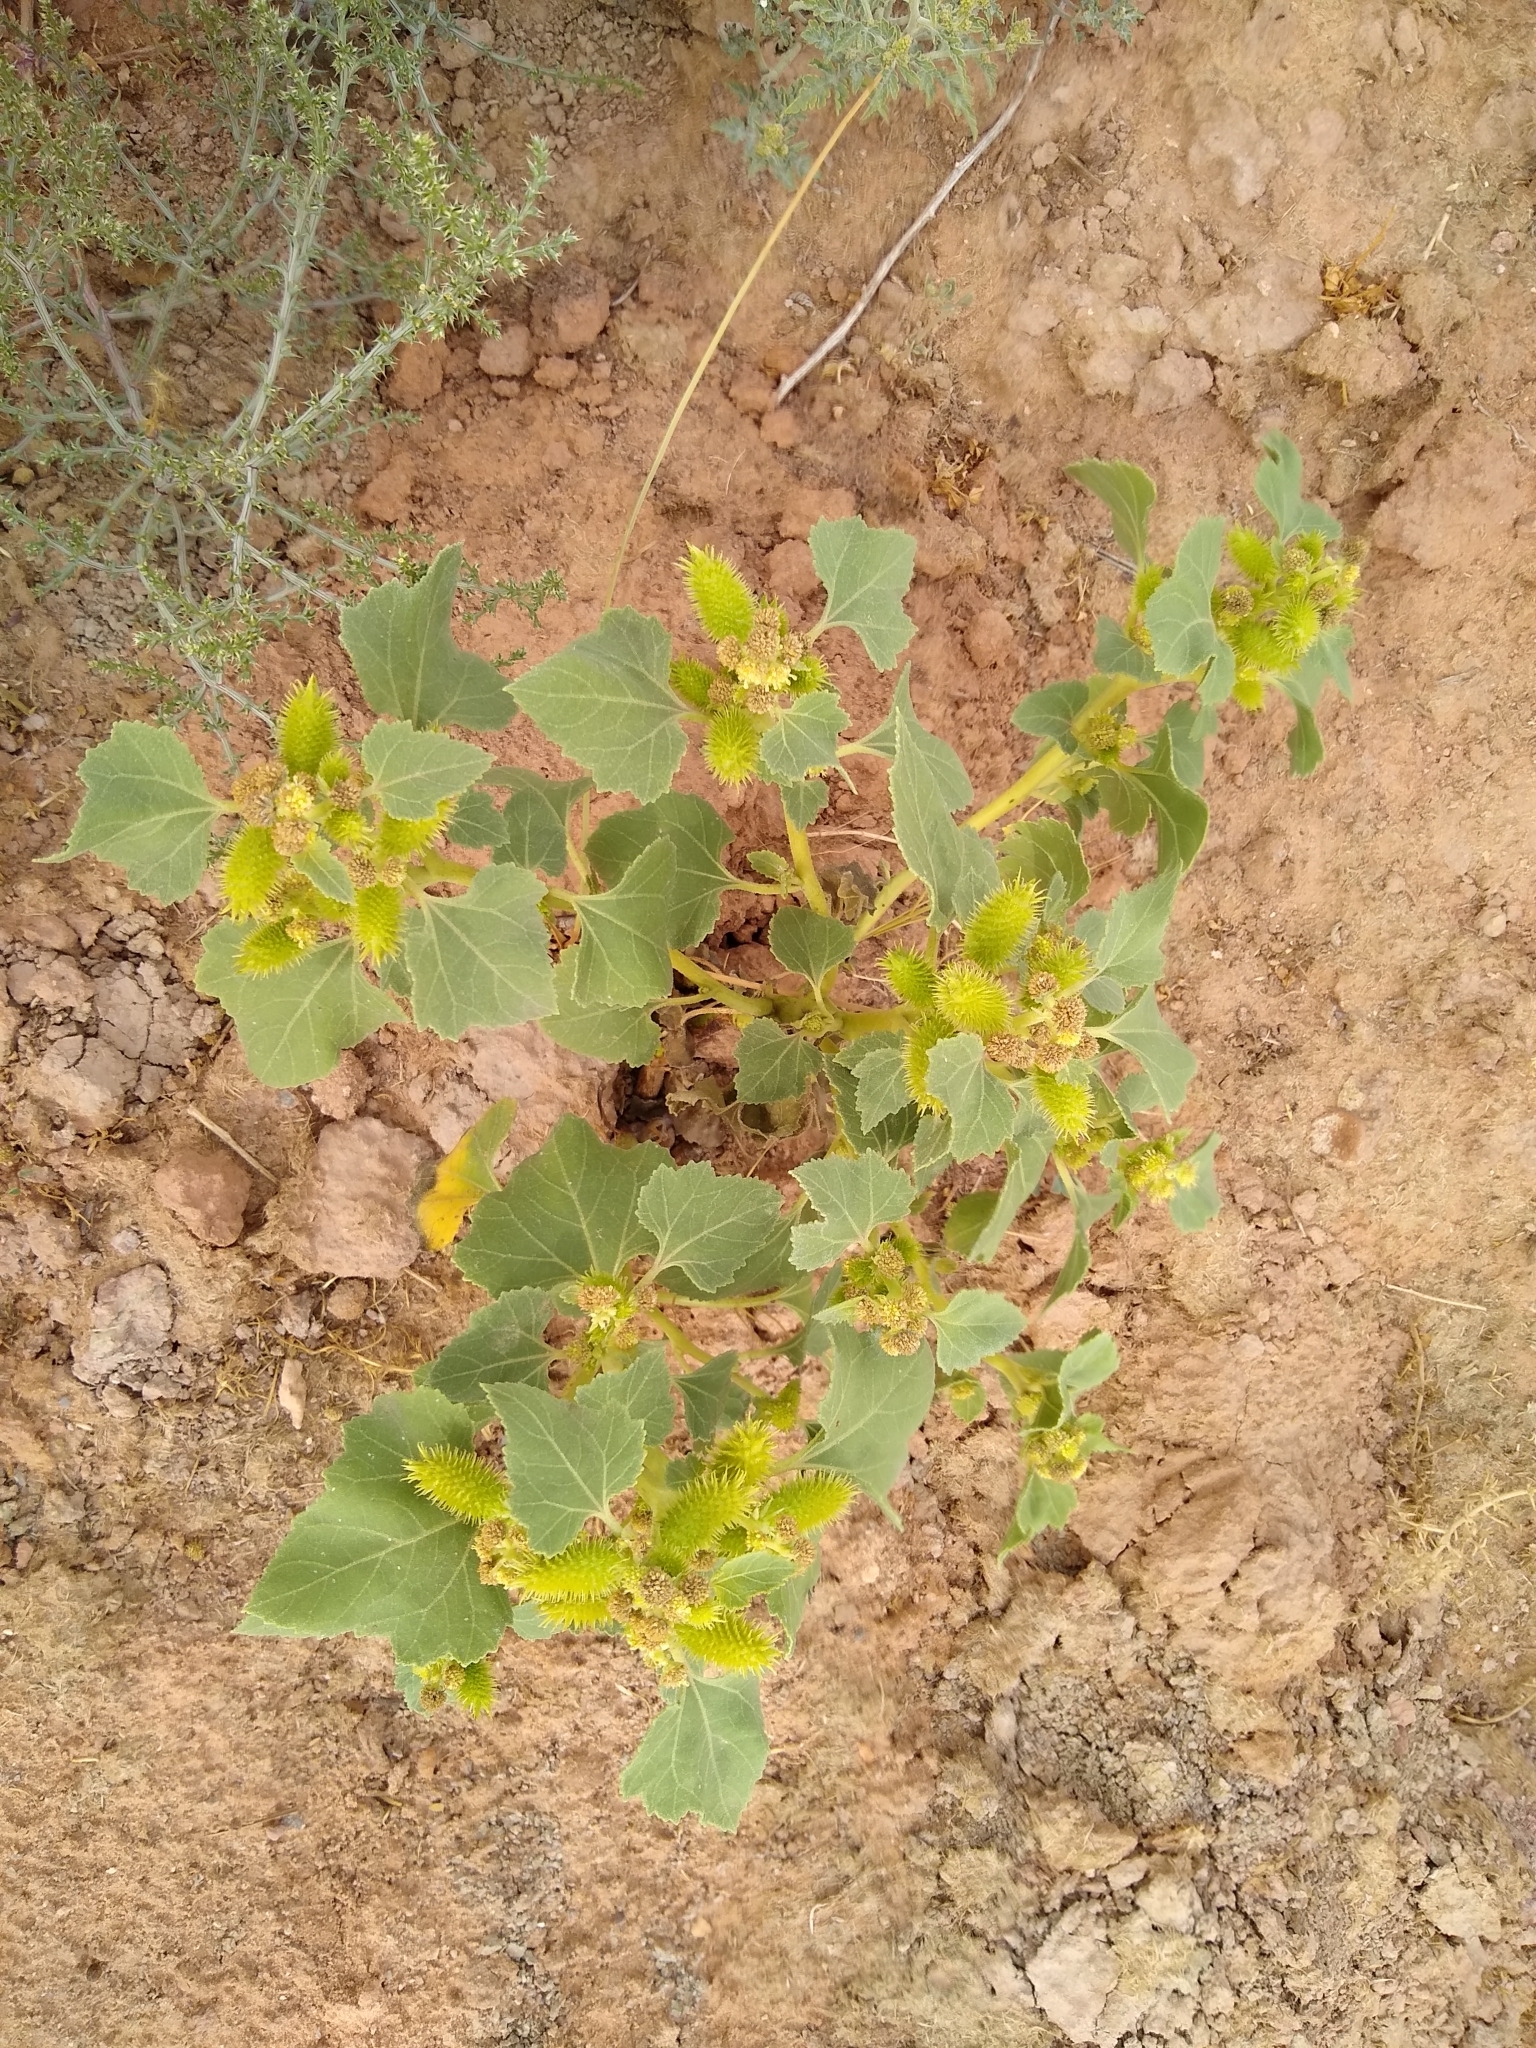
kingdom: Plantae
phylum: Tracheophyta
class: Magnoliopsida
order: Asterales
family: Asteraceae
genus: Xanthium
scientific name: Xanthium strumarium
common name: Rough cocklebur
